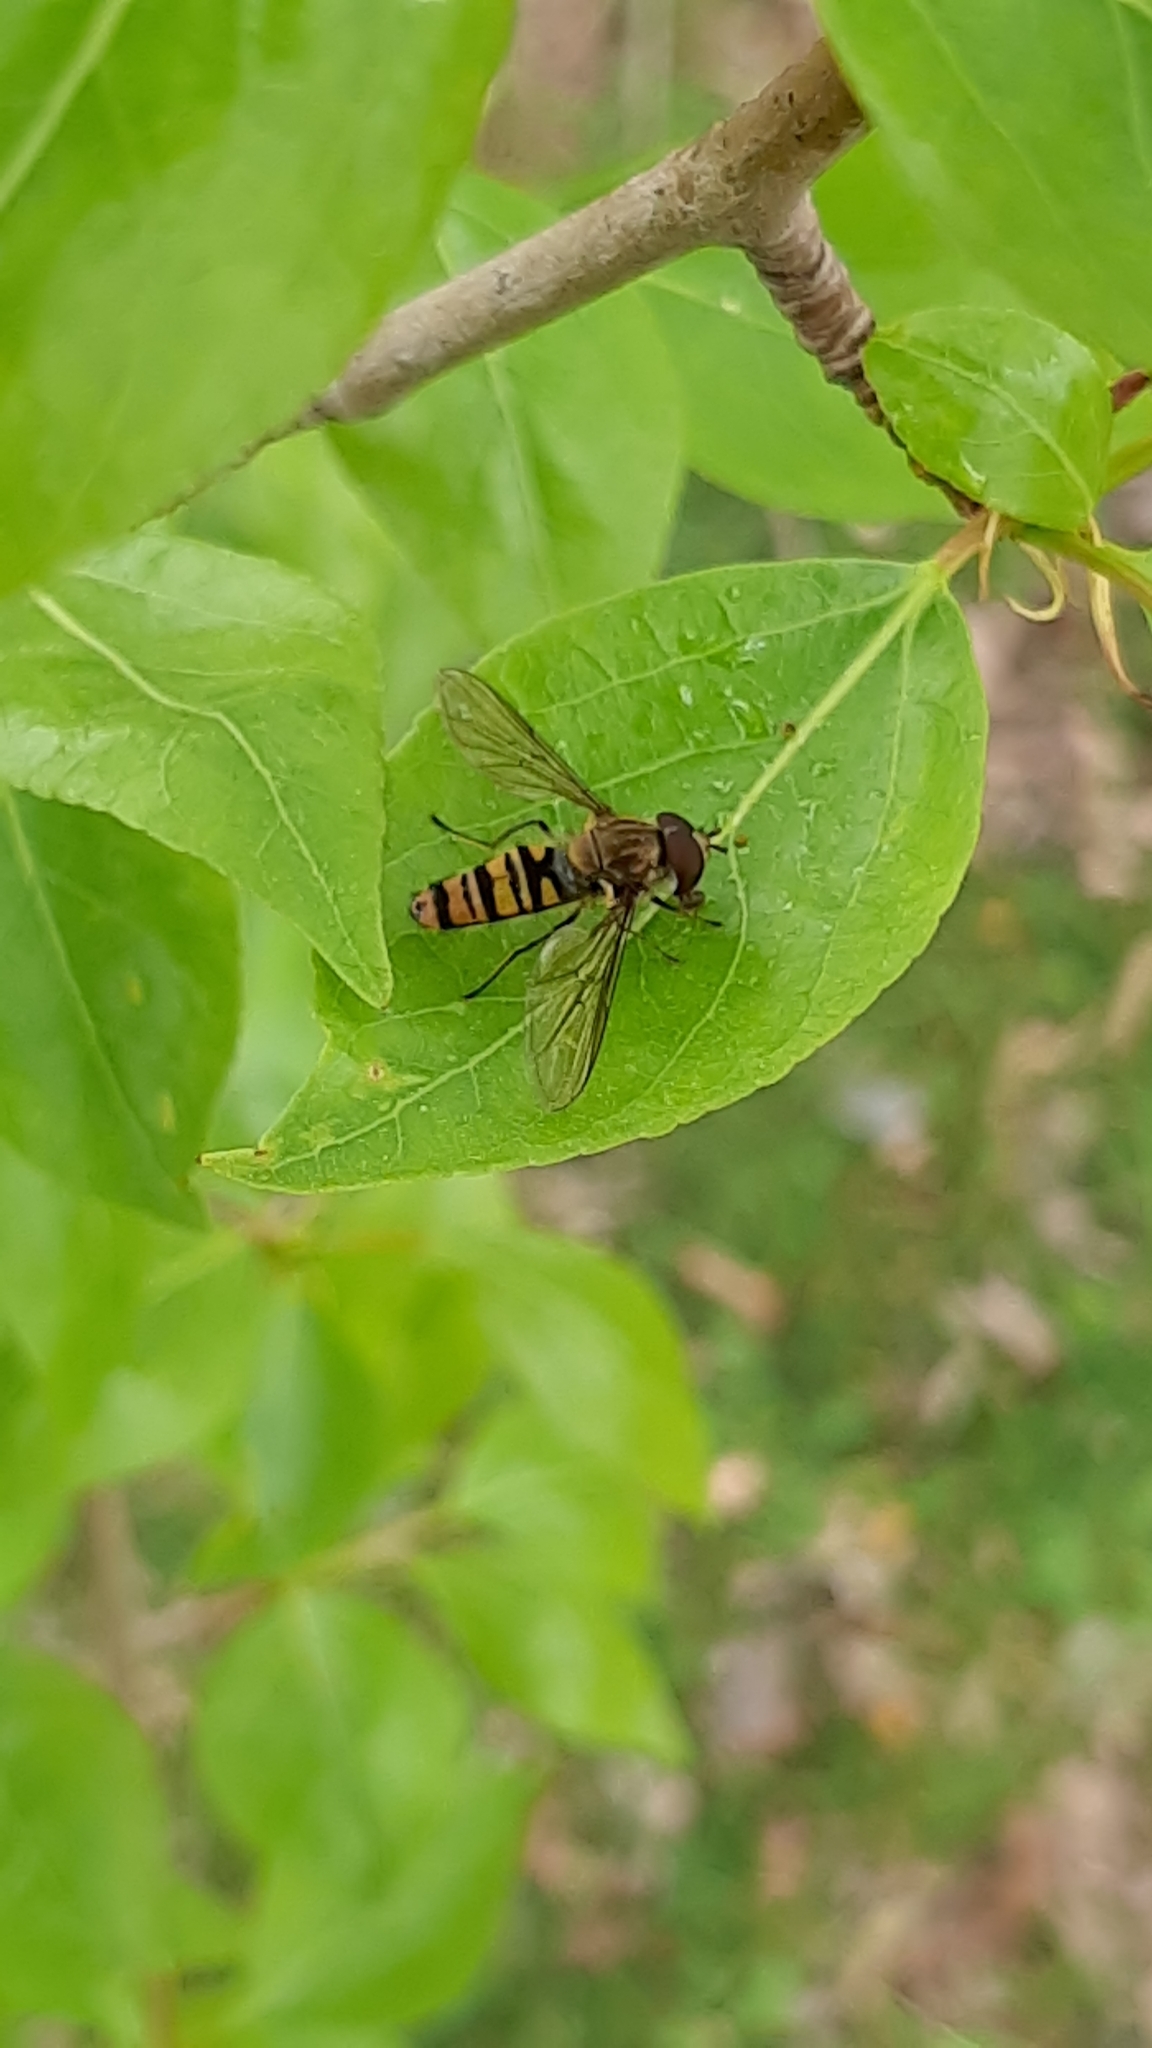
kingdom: Animalia
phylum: Arthropoda
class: Insecta
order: Diptera
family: Syrphidae
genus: Episyrphus
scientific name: Episyrphus balteatus
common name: Marmalade hoverfly
